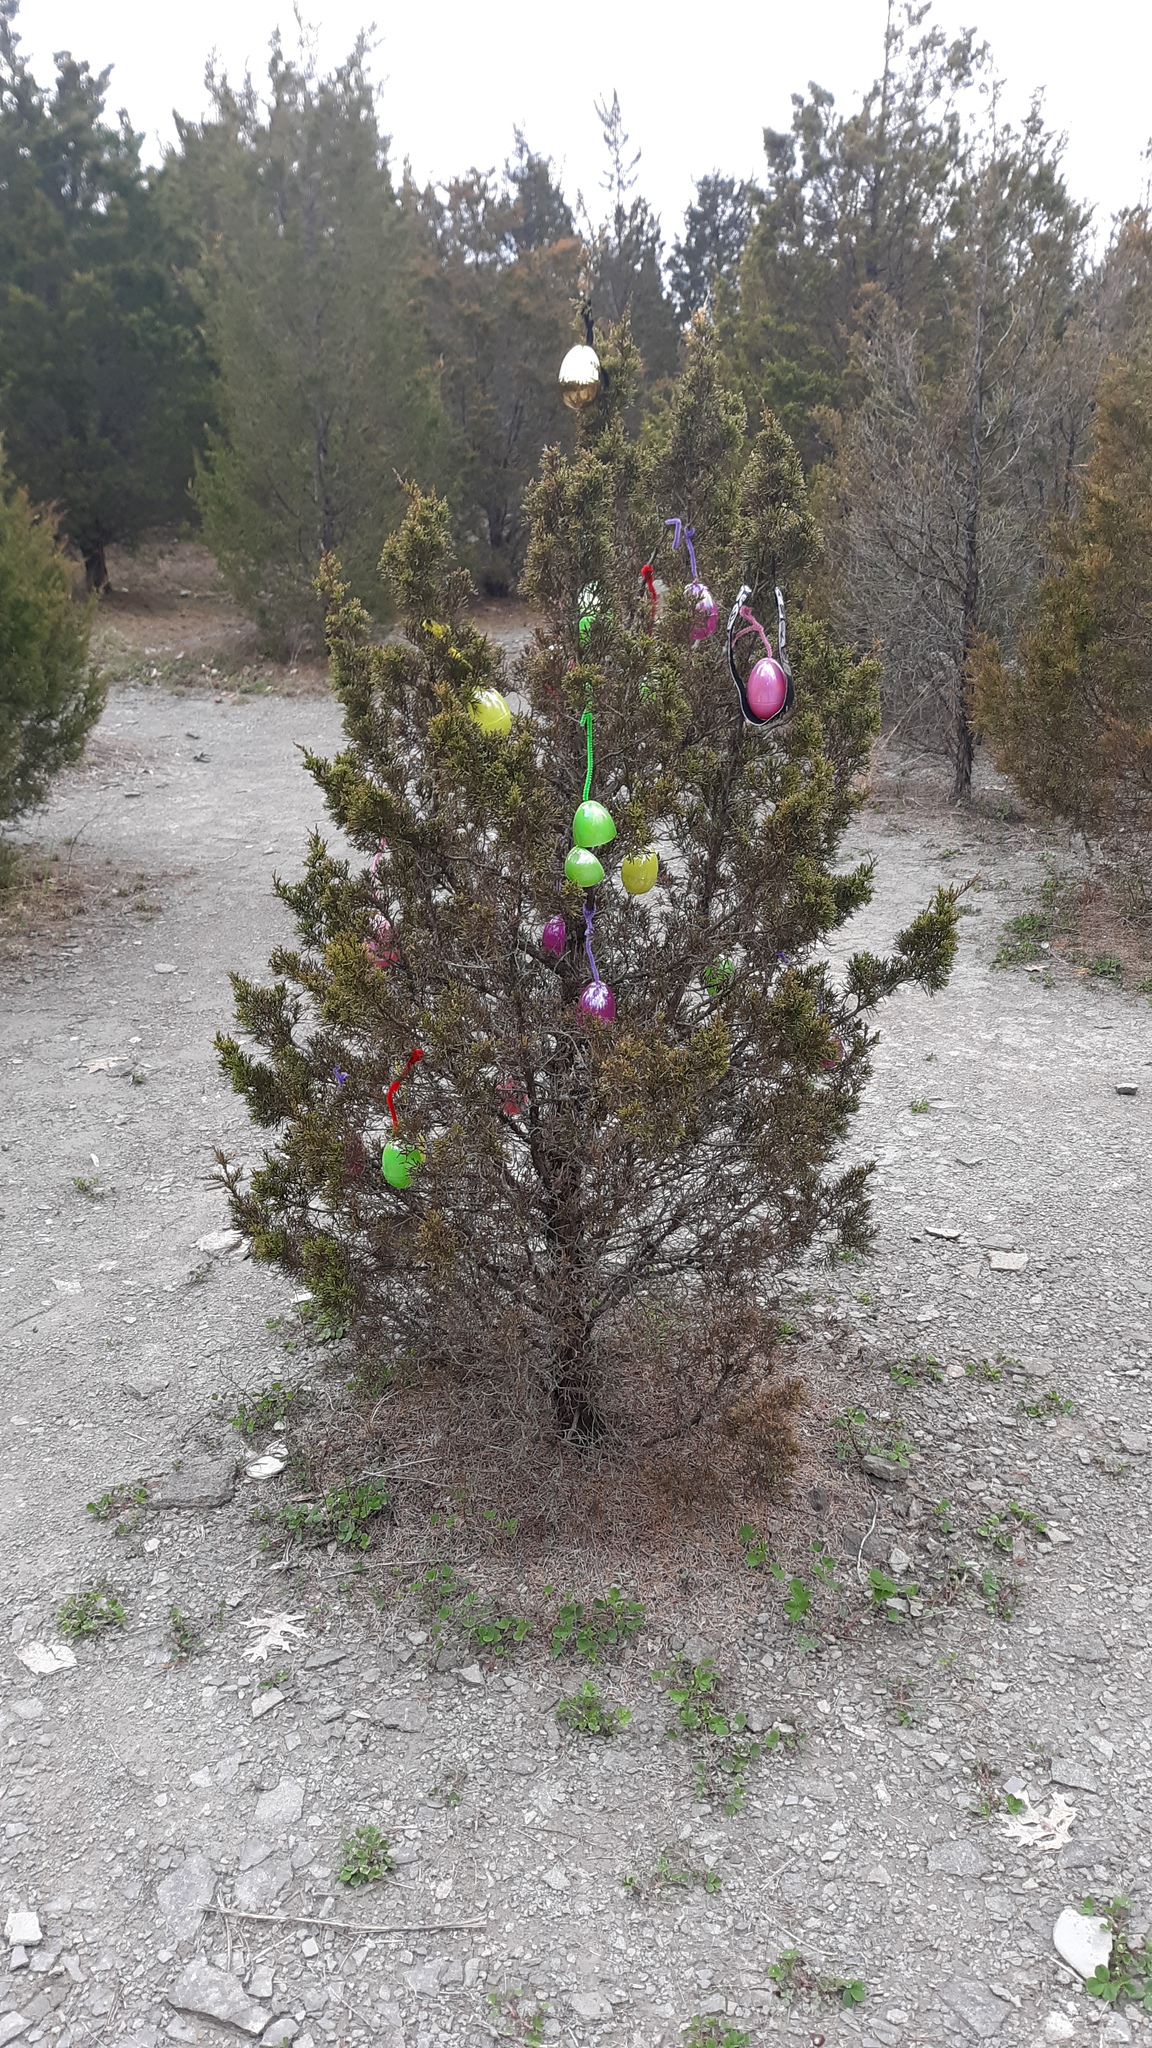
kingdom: Plantae
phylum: Tracheophyta
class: Pinopsida
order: Pinales
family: Cupressaceae
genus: Juniperus
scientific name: Juniperus virginiana
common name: Red juniper
